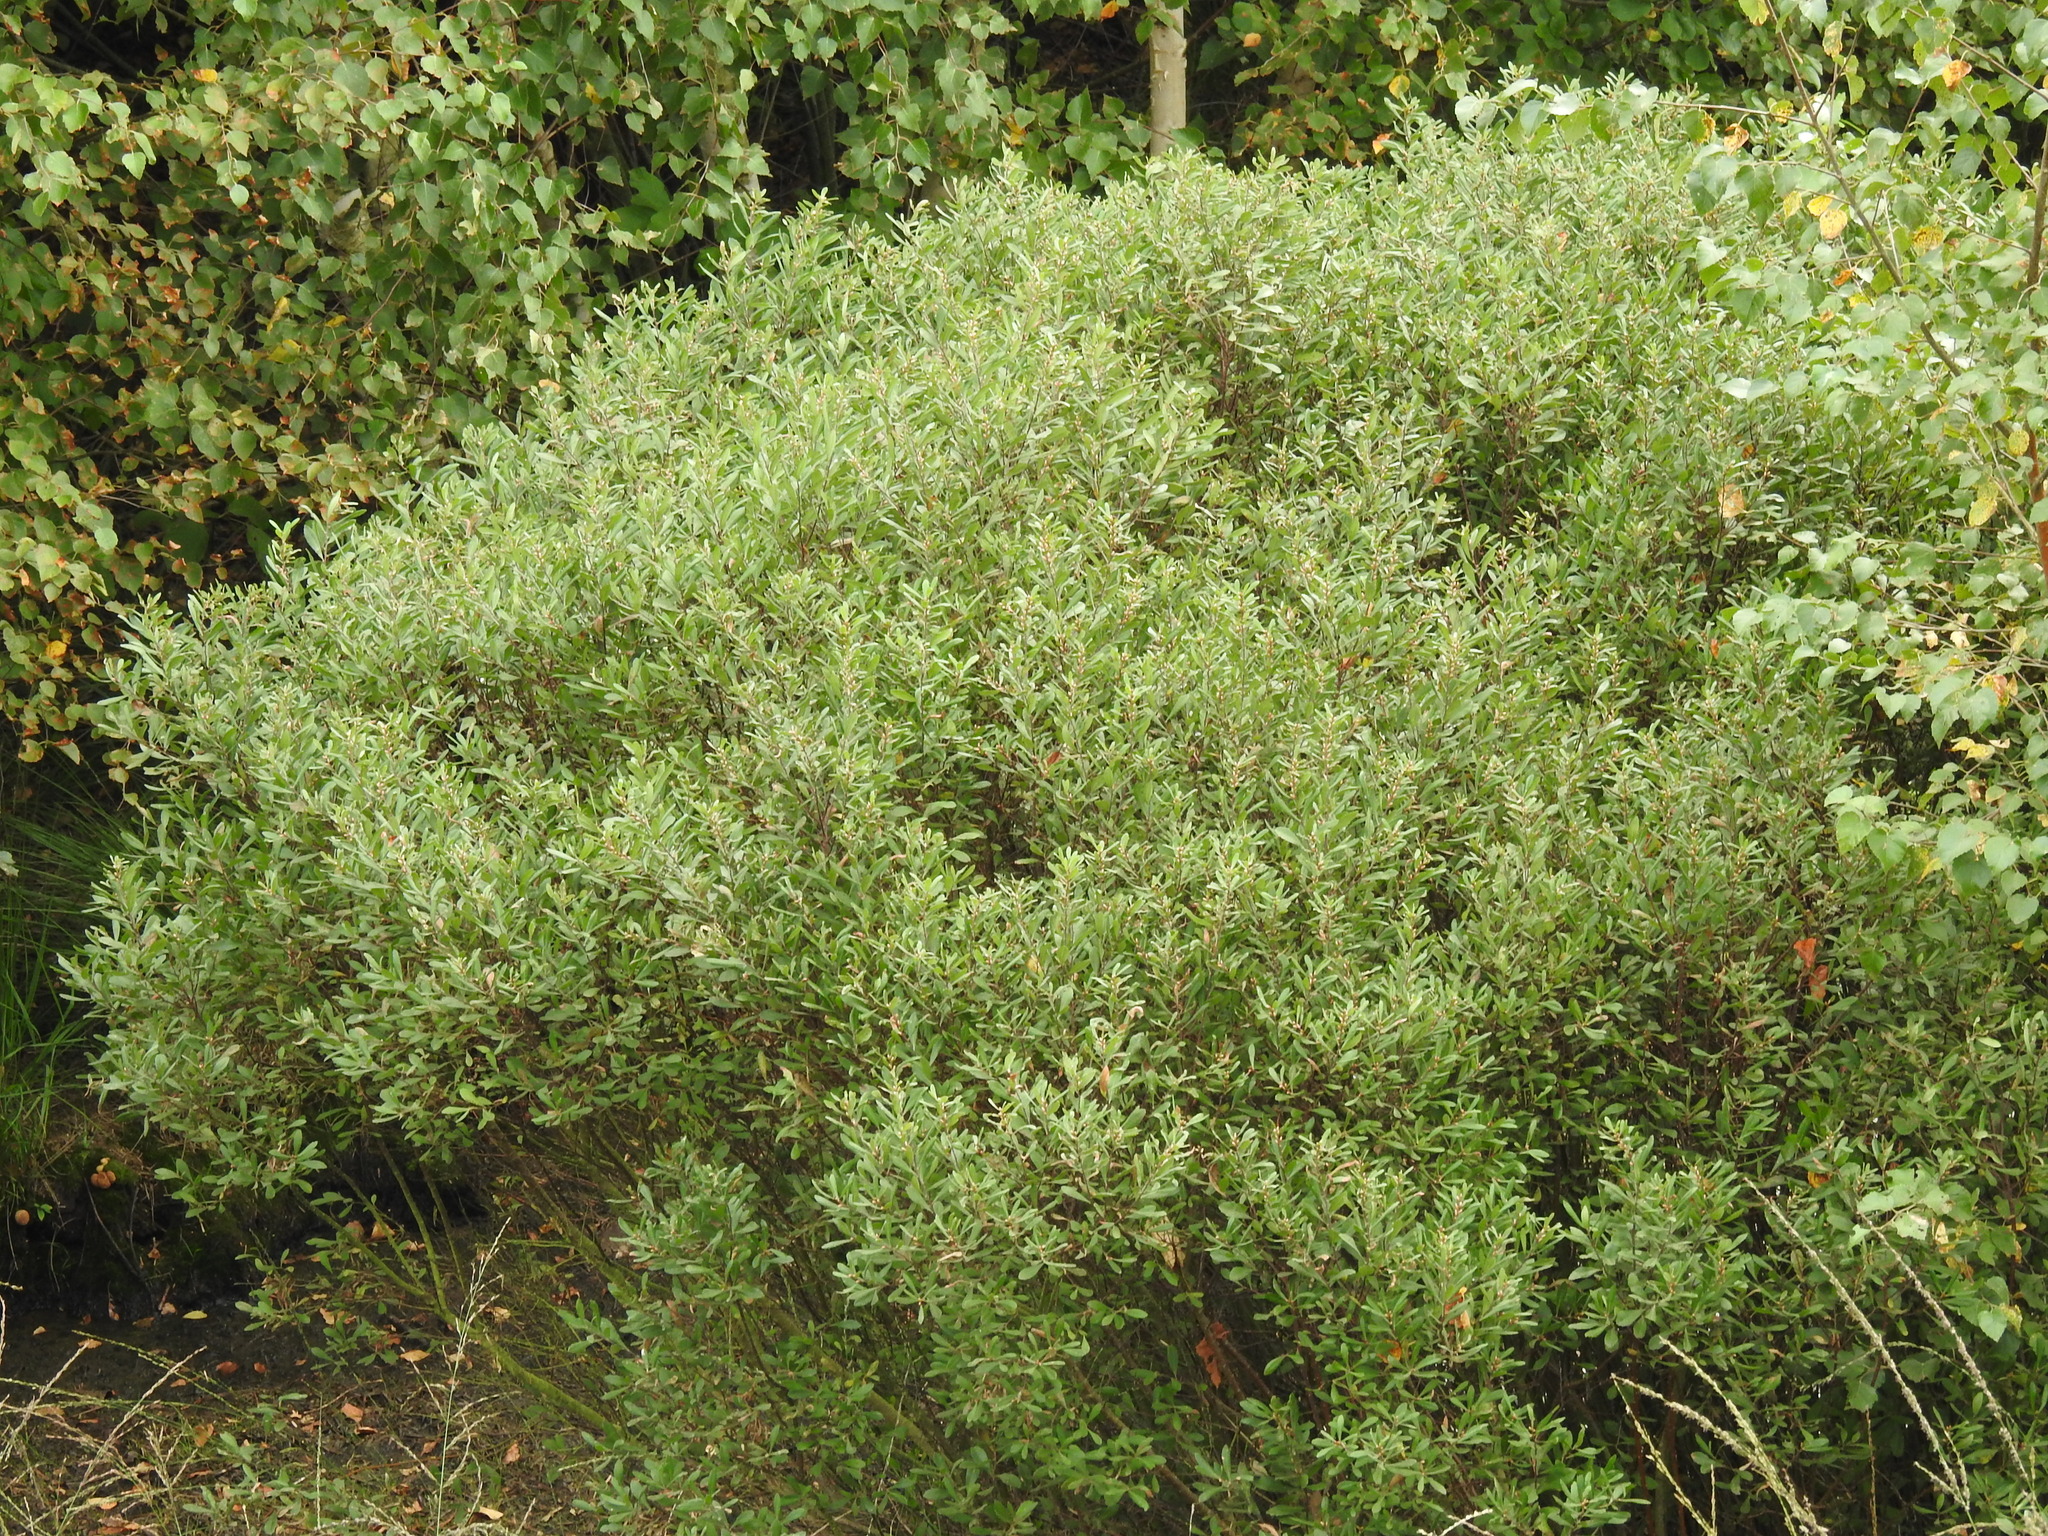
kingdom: Plantae
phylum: Tracheophyta
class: Magnoliopsida
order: Fagales
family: Myricaceae
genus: Myrica
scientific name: Myrica gale
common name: Sweet gale
